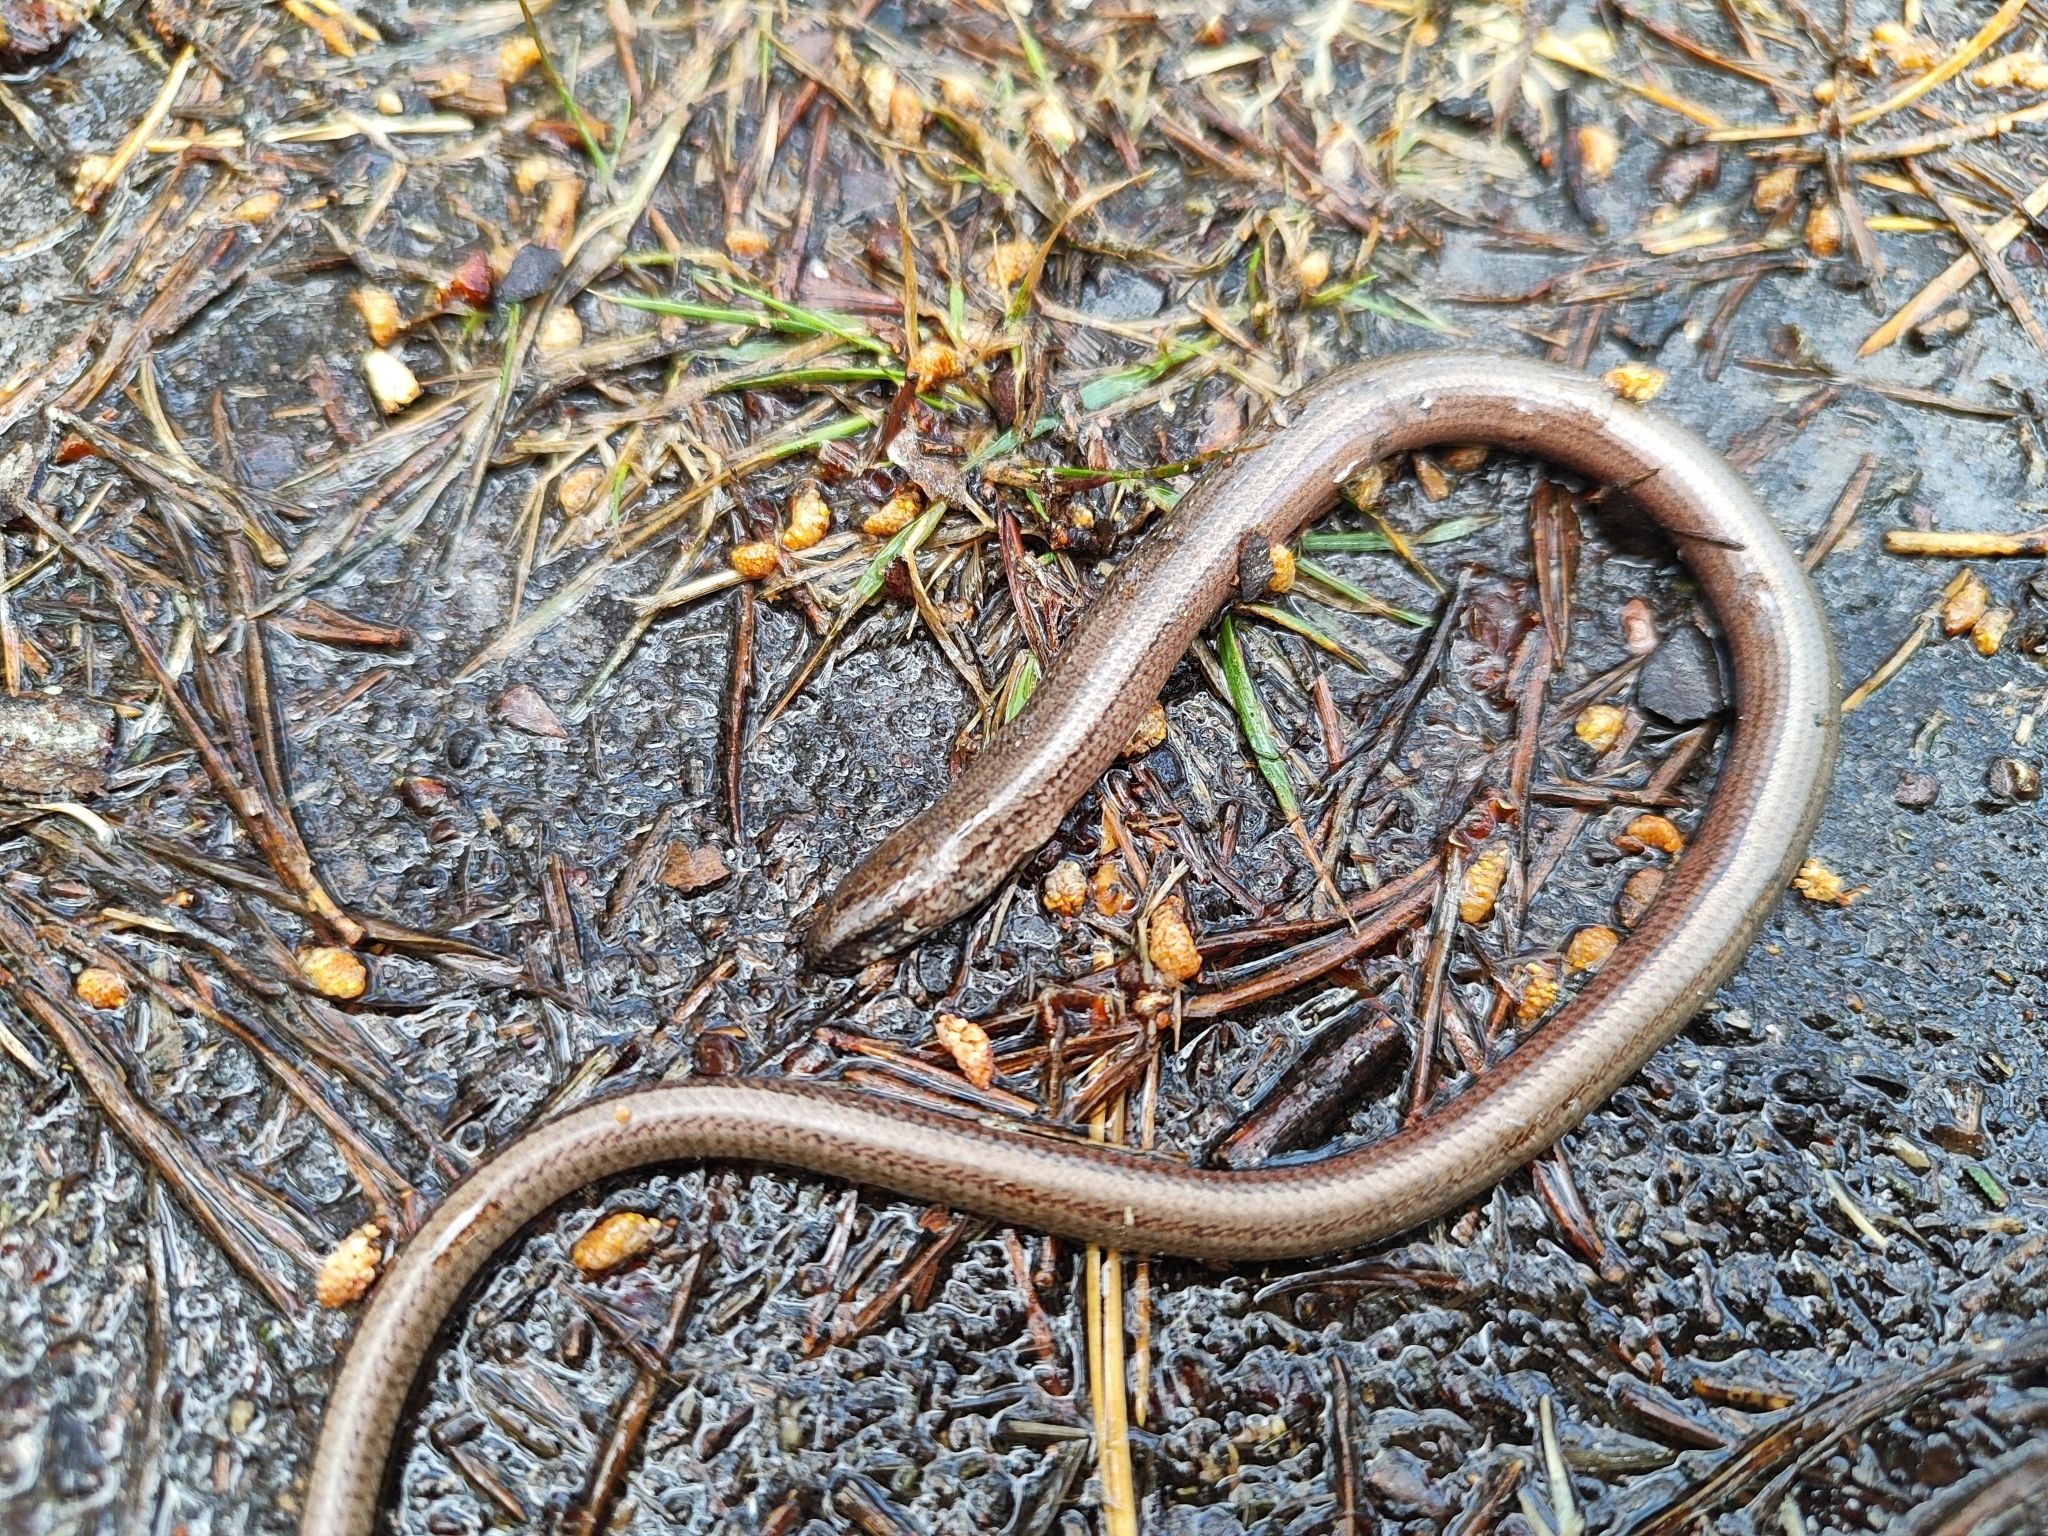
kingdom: Animalia
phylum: Chordata
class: Squamata
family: Anguidae
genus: Anguis
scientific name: Anguis fragilis
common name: Slow worm
